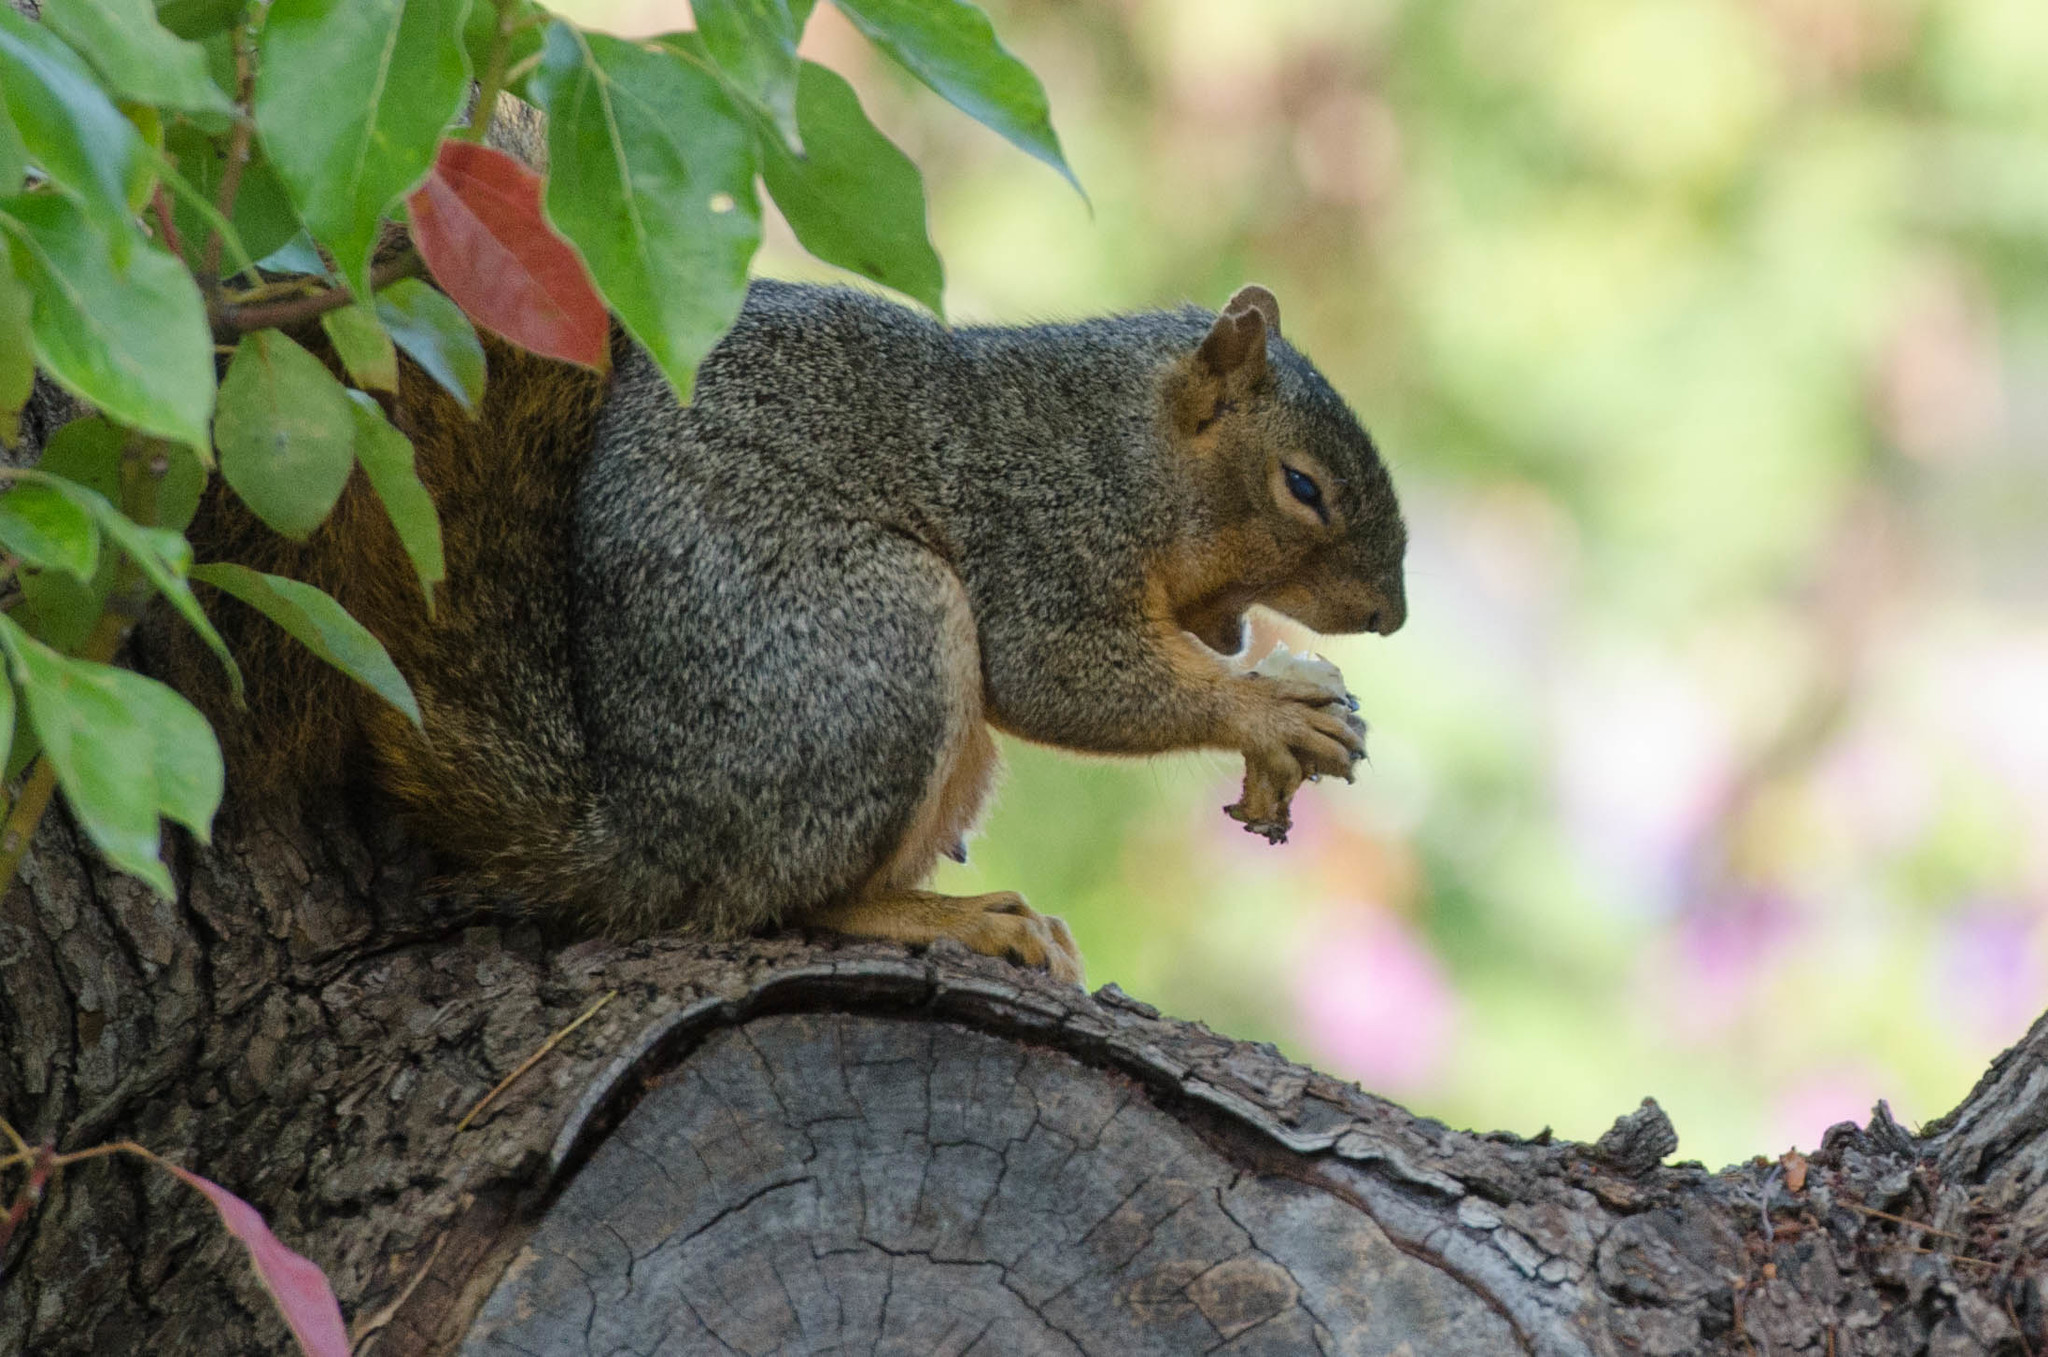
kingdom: Animalia
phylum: Chordata
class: Mammalia
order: Rodentia
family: Sciuridae
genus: Sciurus
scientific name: Sciurus niger
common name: Fox squirrel
